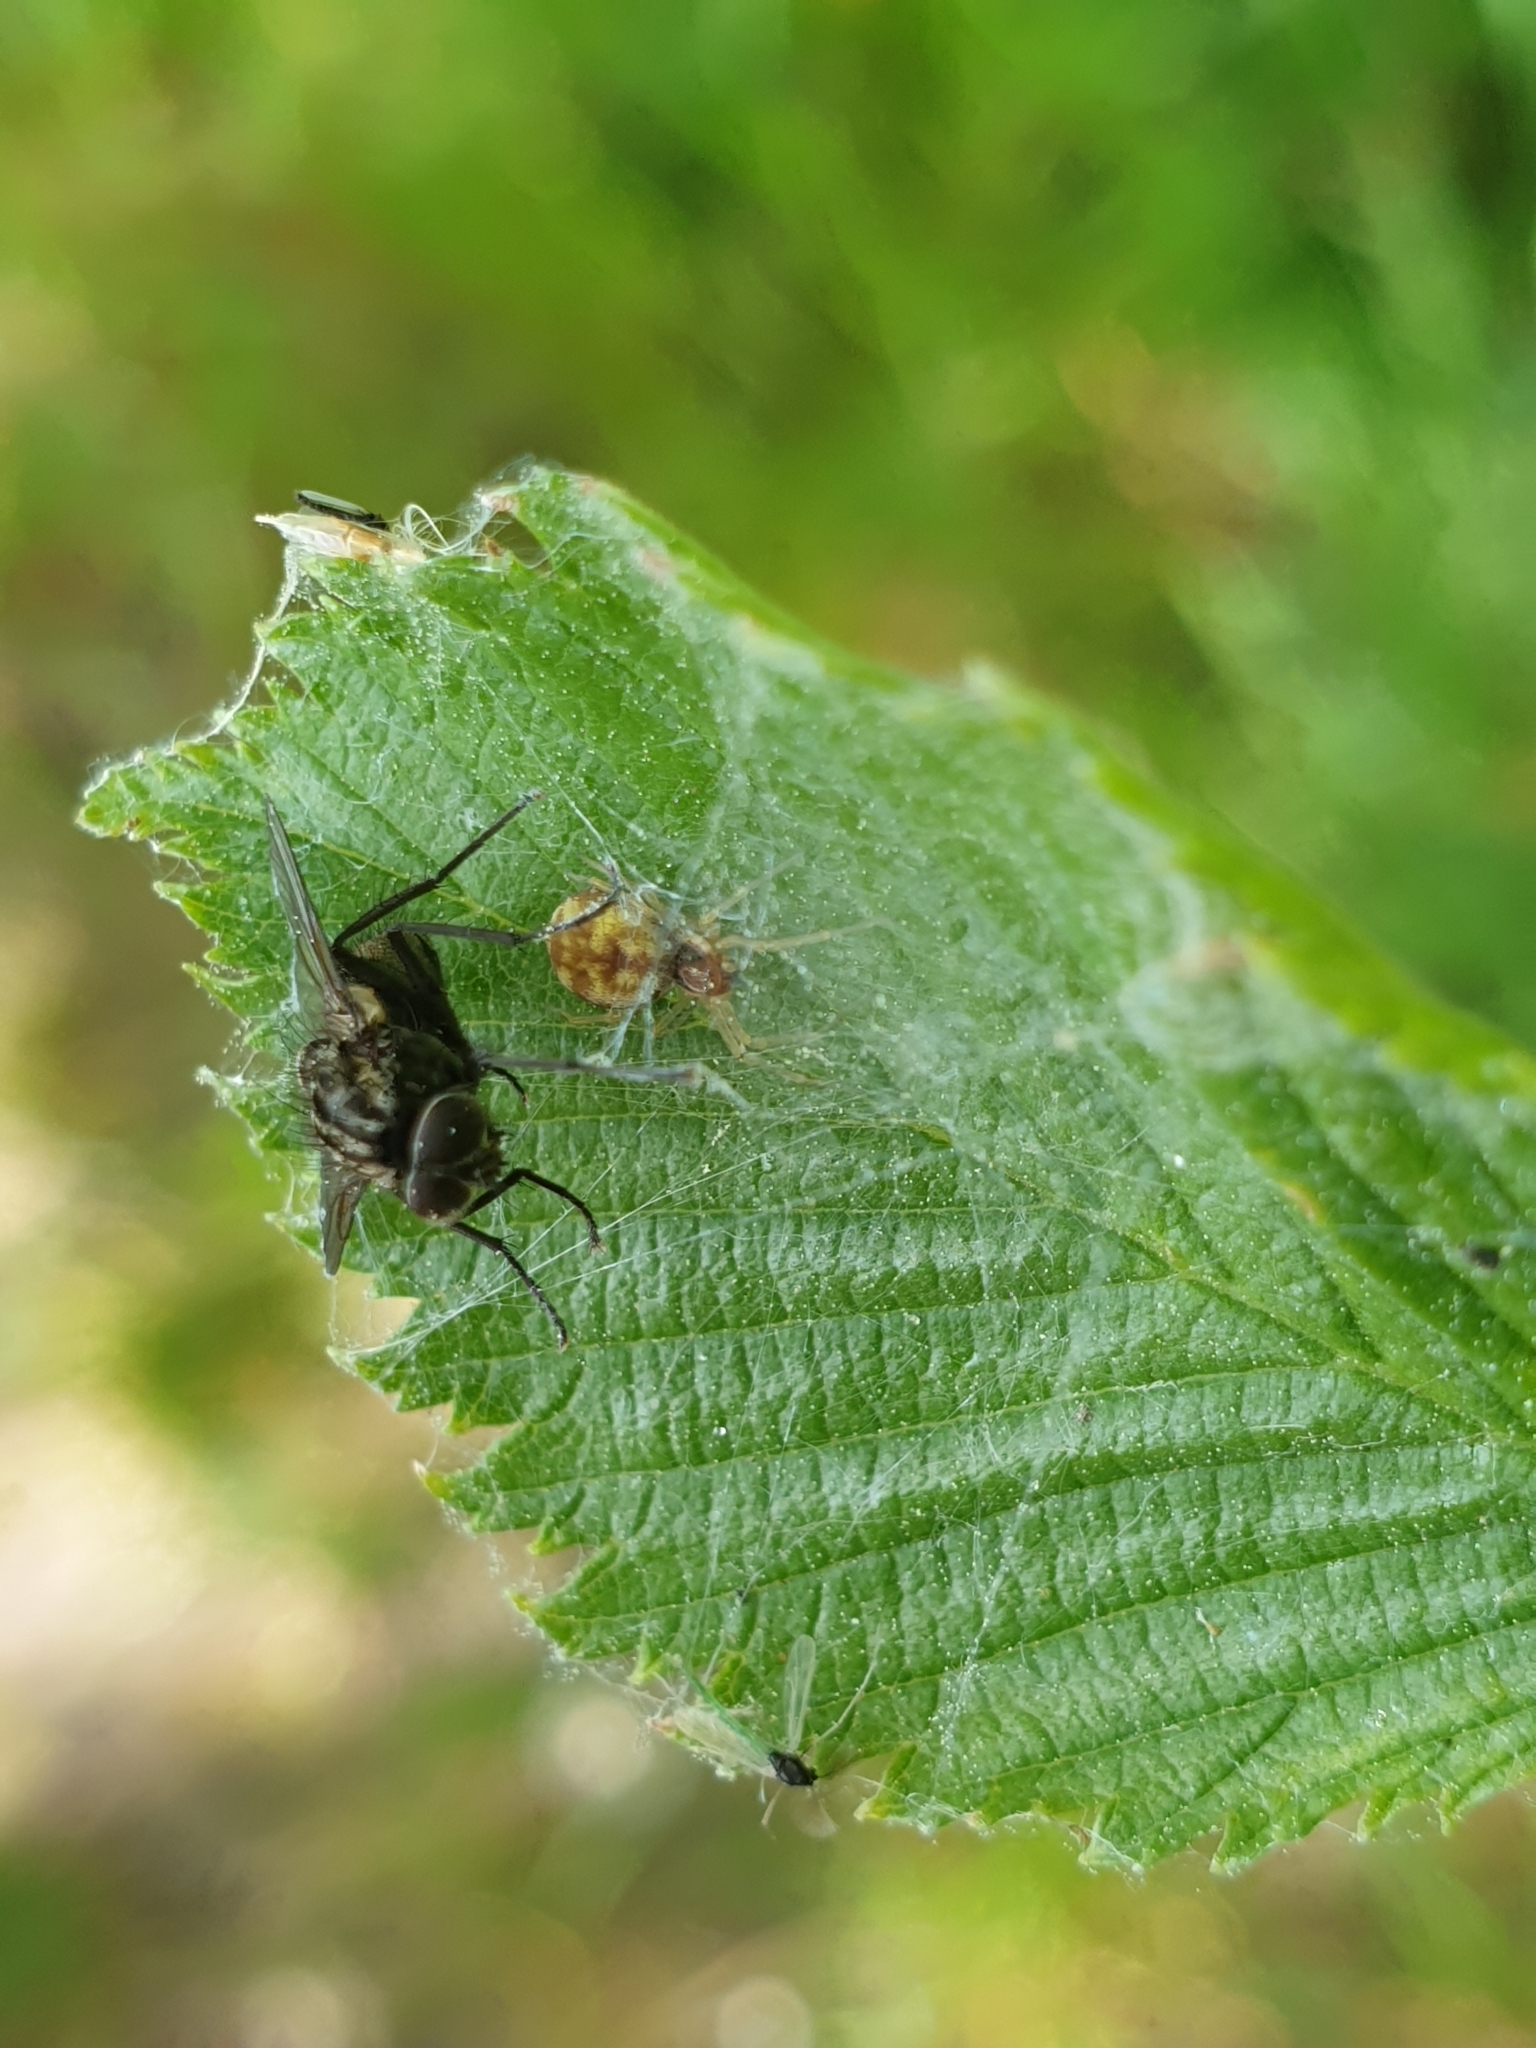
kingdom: Animalia
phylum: Arthropoda
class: Arachnida
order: Araneae
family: Dictynidae
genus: Nigma
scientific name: Nigma flavescens
